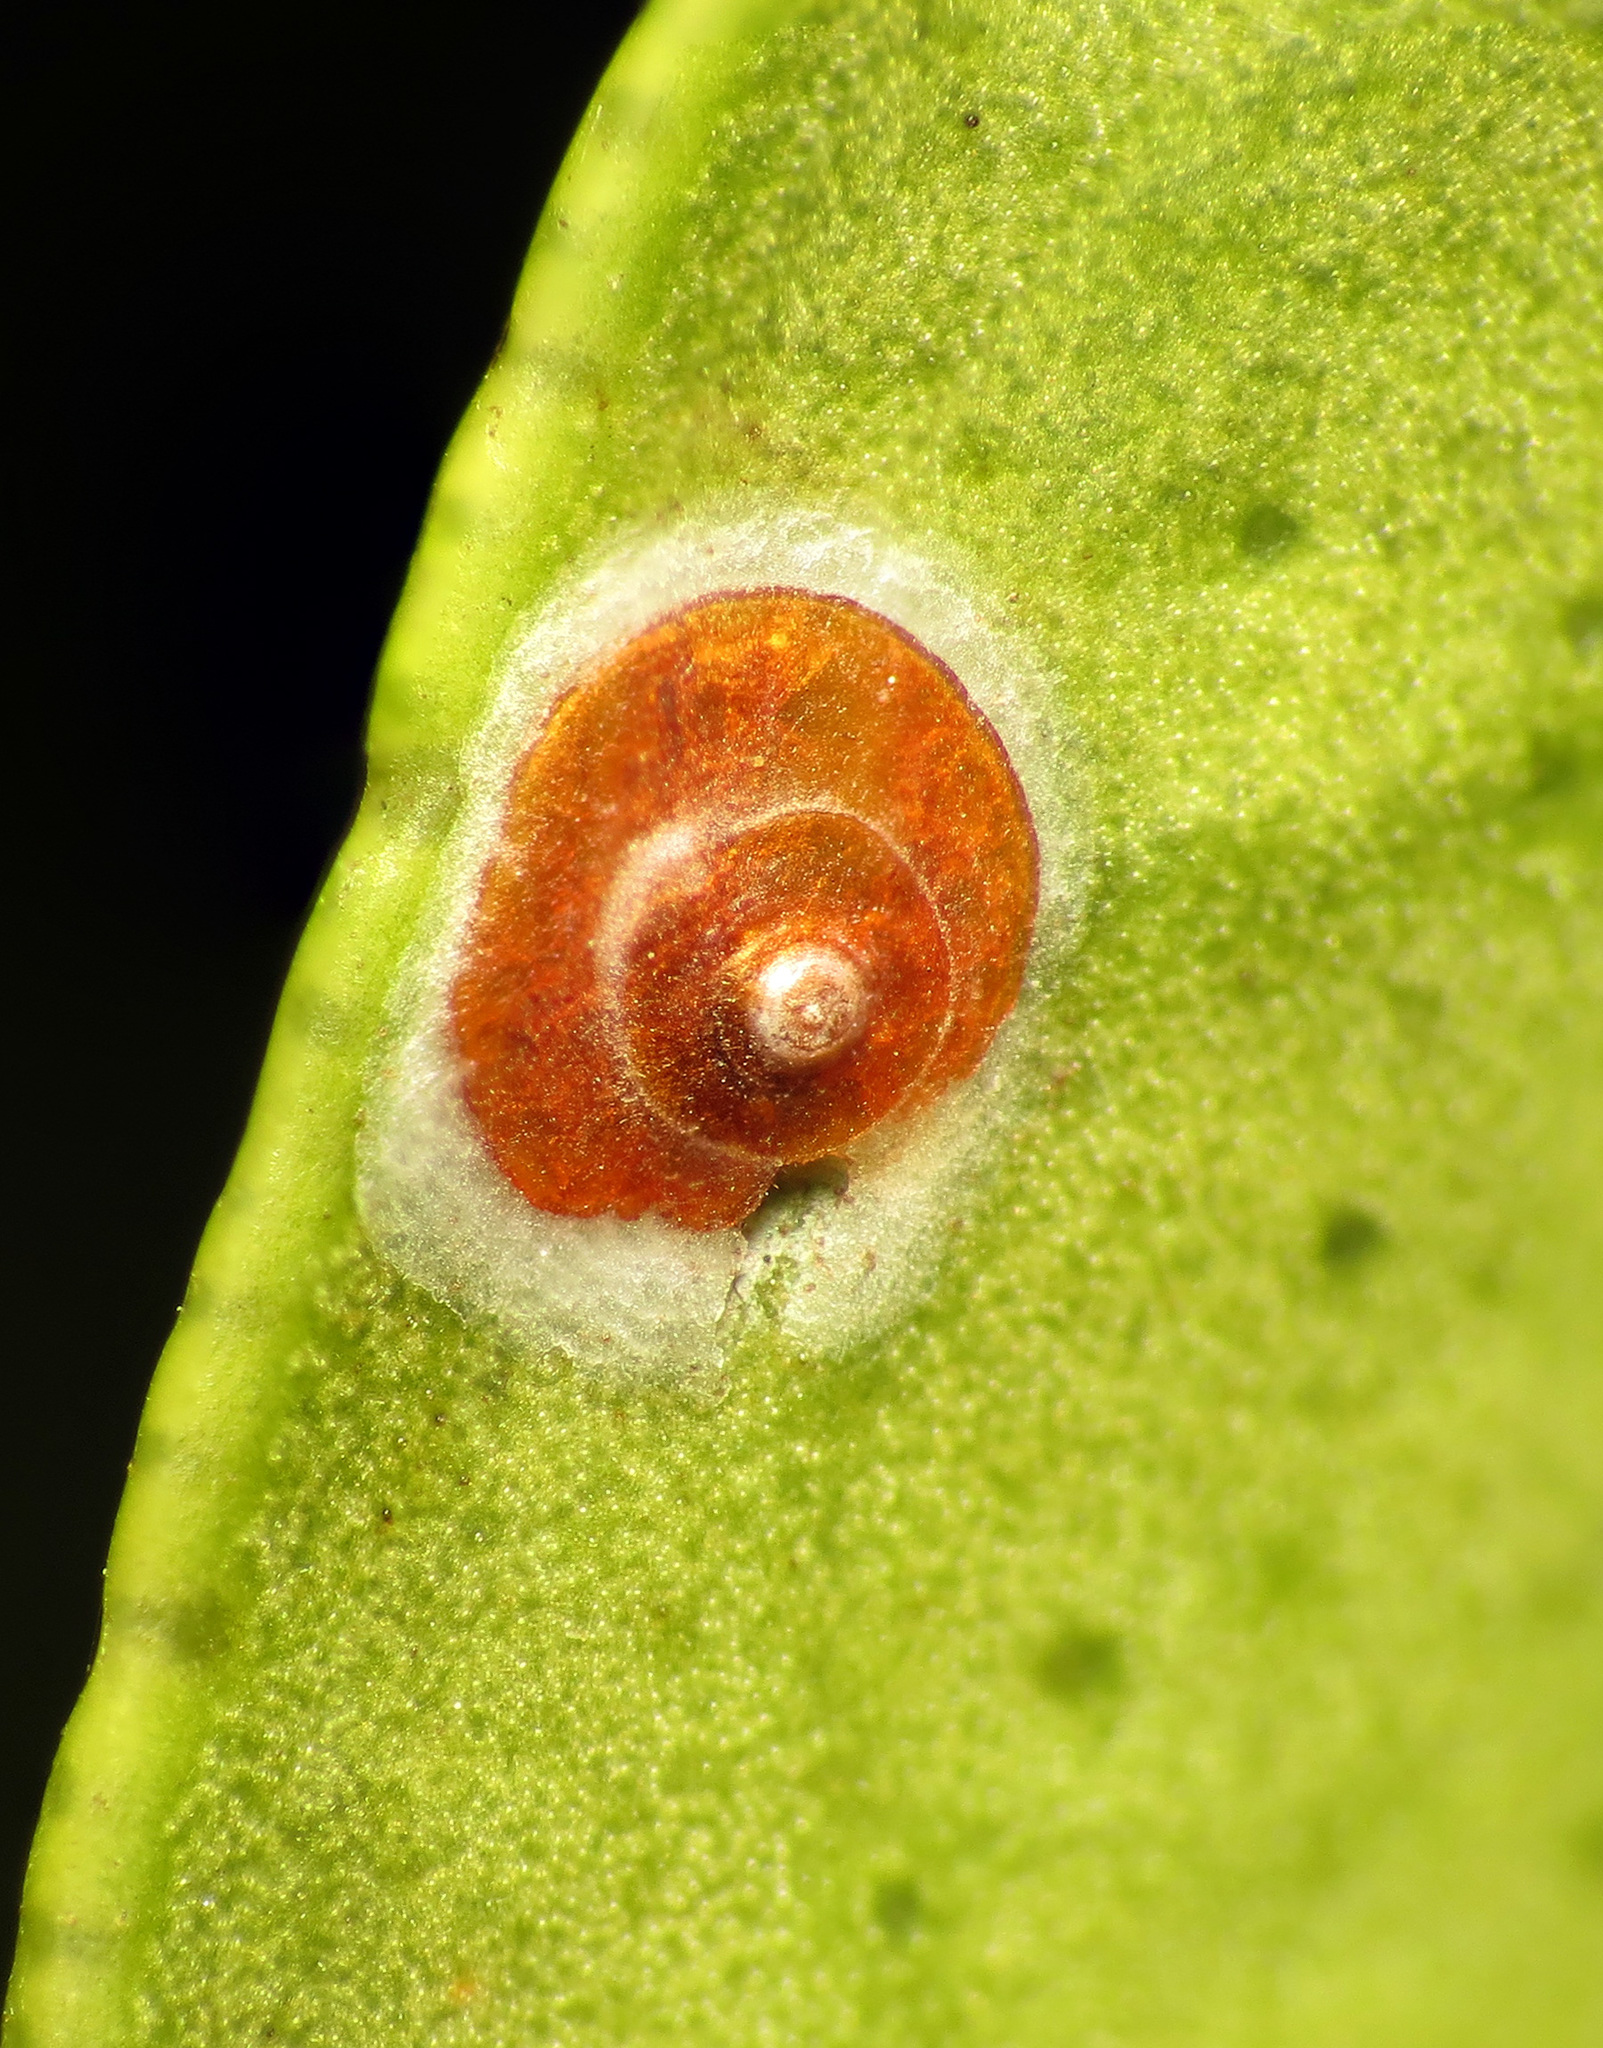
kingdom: Animalia
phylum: Arthropoda
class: Insecta
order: Hemiptera
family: Diaspididae
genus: Aonidiella
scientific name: Aonidiella aurantii
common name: California red scale
